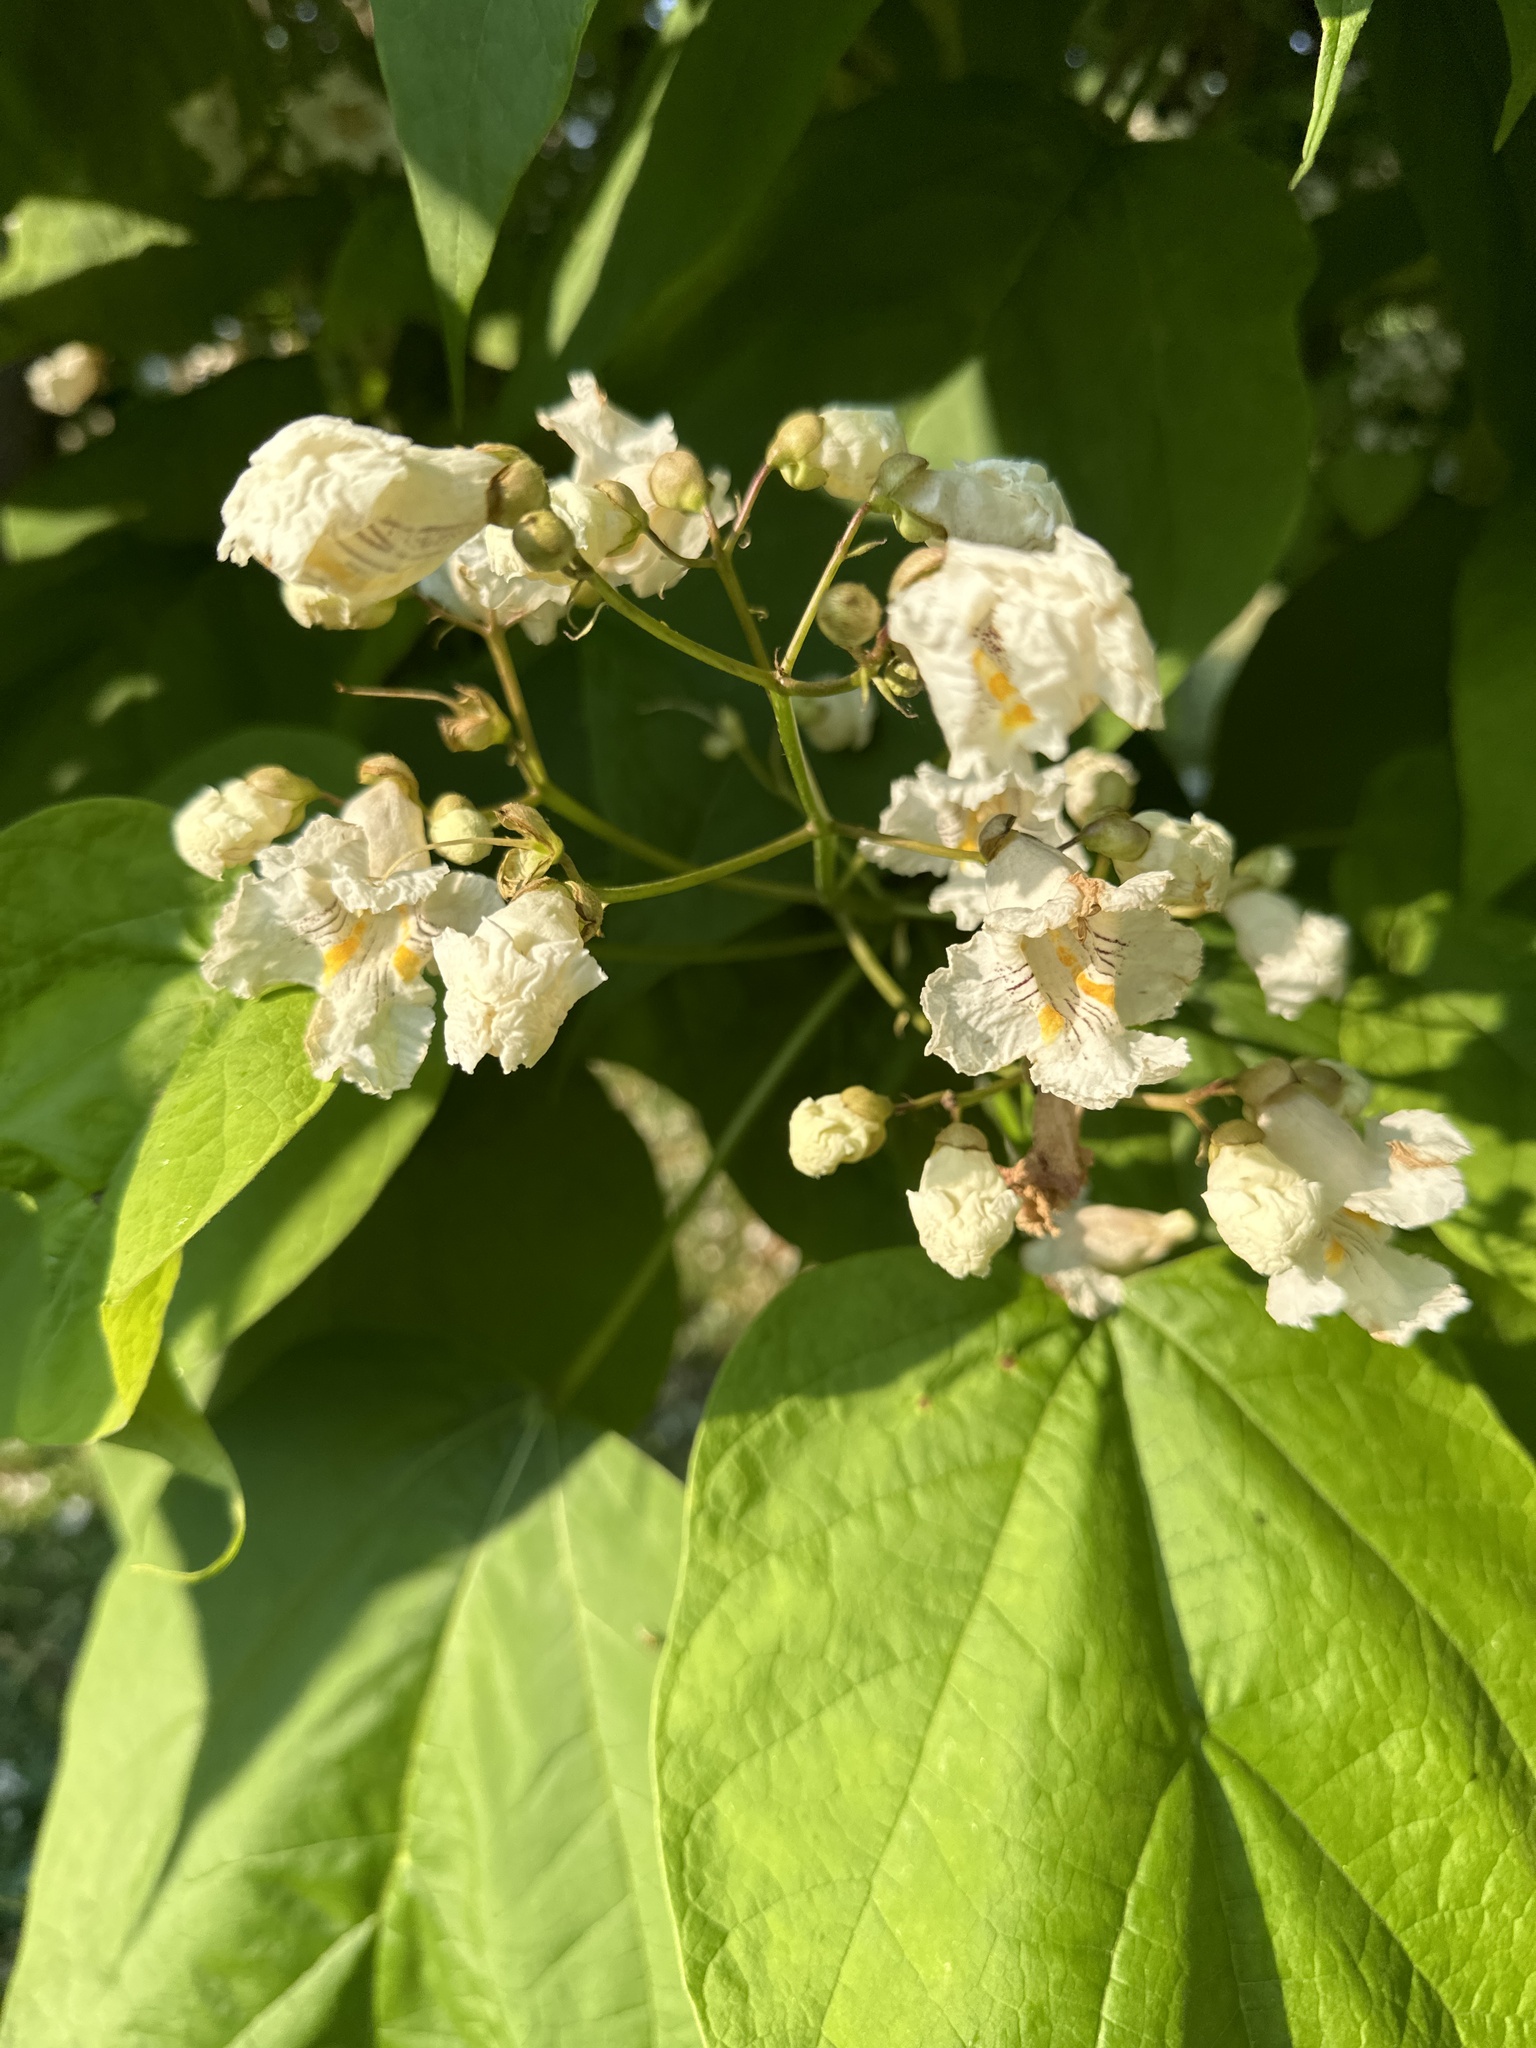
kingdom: Plantae
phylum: Tracheophyta
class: Magnoliopsida
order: Lamiales
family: Bignoniaceae
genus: Catalpa
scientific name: Catalpa speciosa
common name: Northern catalpa
